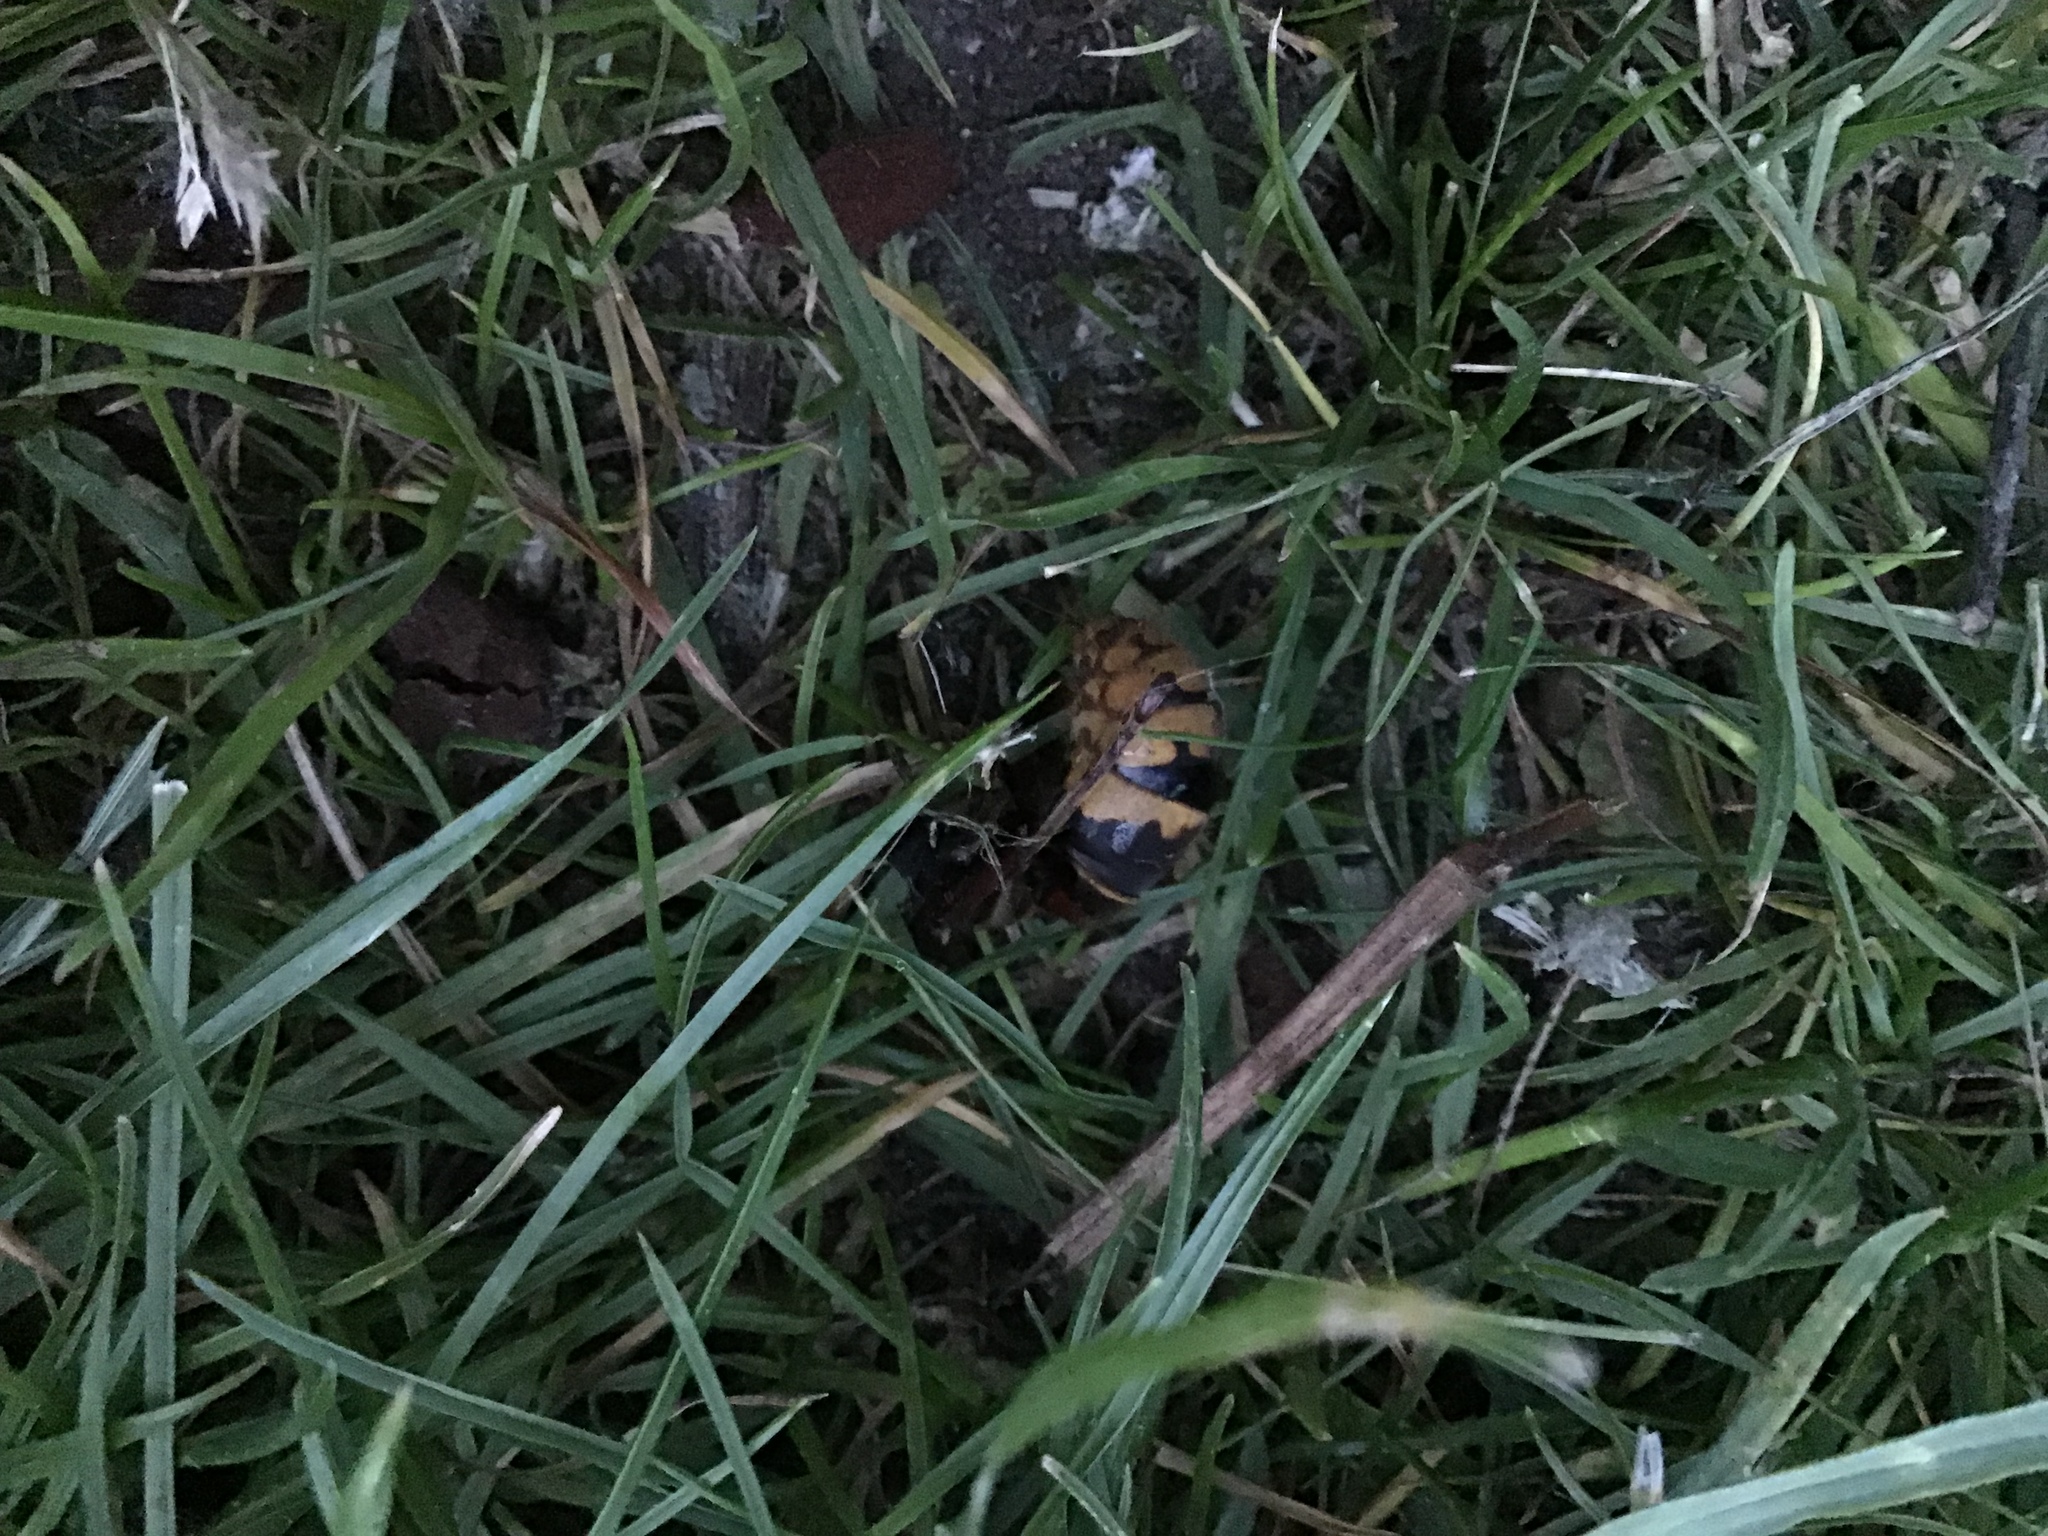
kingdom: Animalia
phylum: Arthropoda
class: Insecta
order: Hymenoptera
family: Vespidae
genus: Vespa
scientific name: Vespa crabro
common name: Hornet
